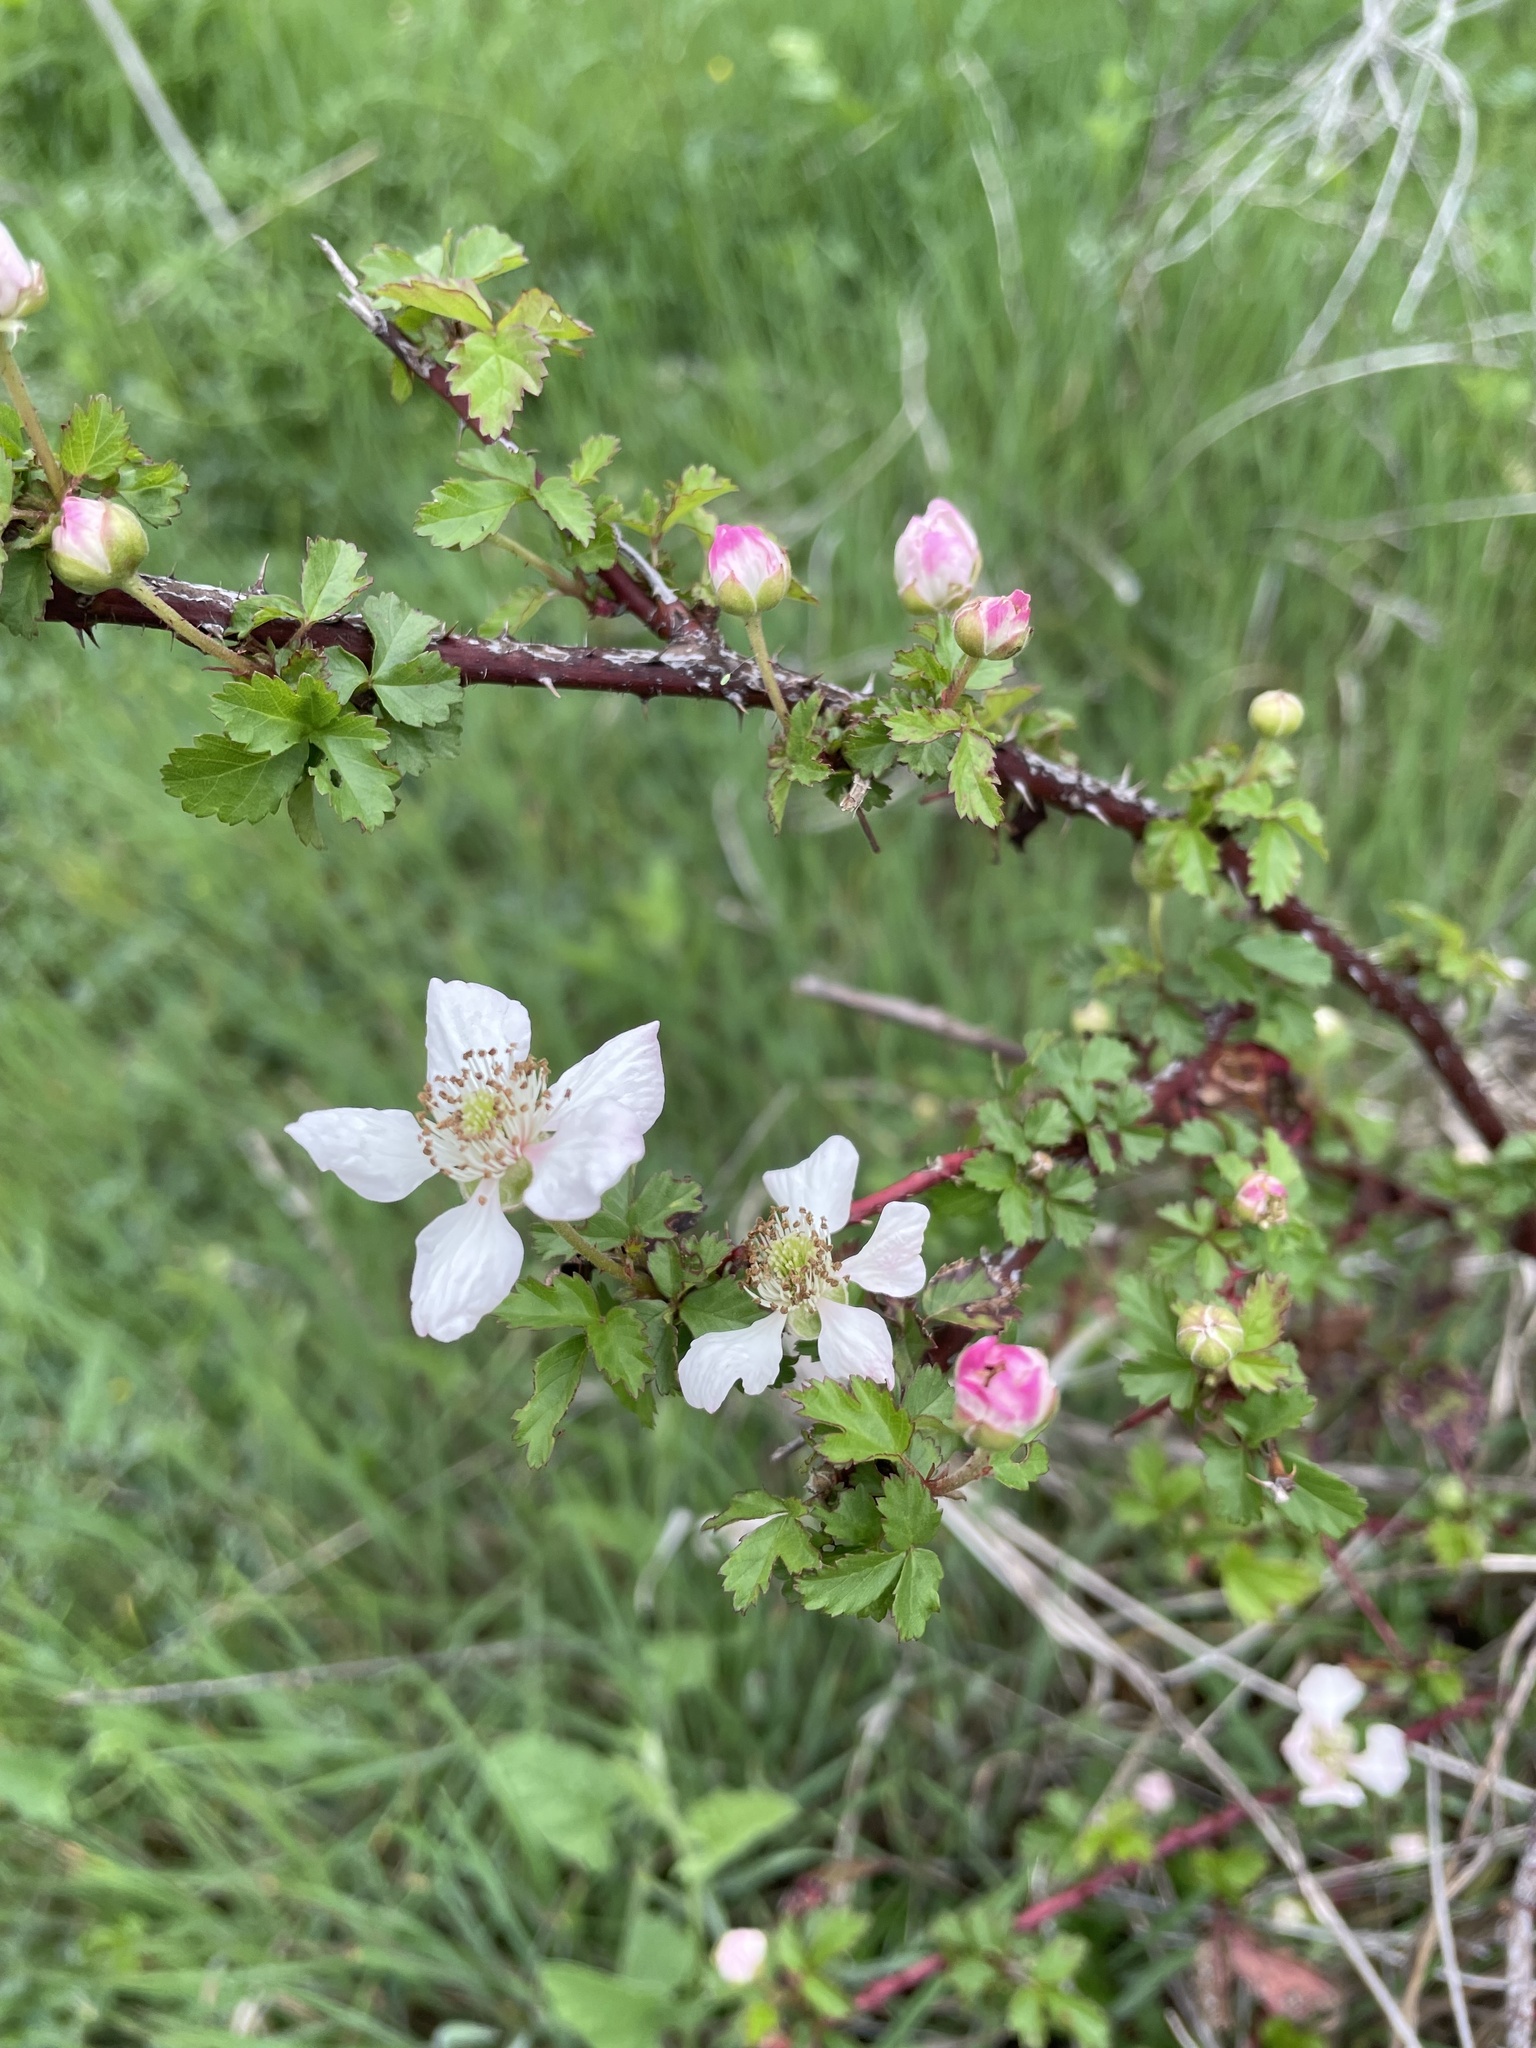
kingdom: Plantae
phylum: Tracheophyta
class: Magnoliopsida
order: Rosales
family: Rosaceae
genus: Rubus
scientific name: Rubus trivialis
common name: Southern dewberry
